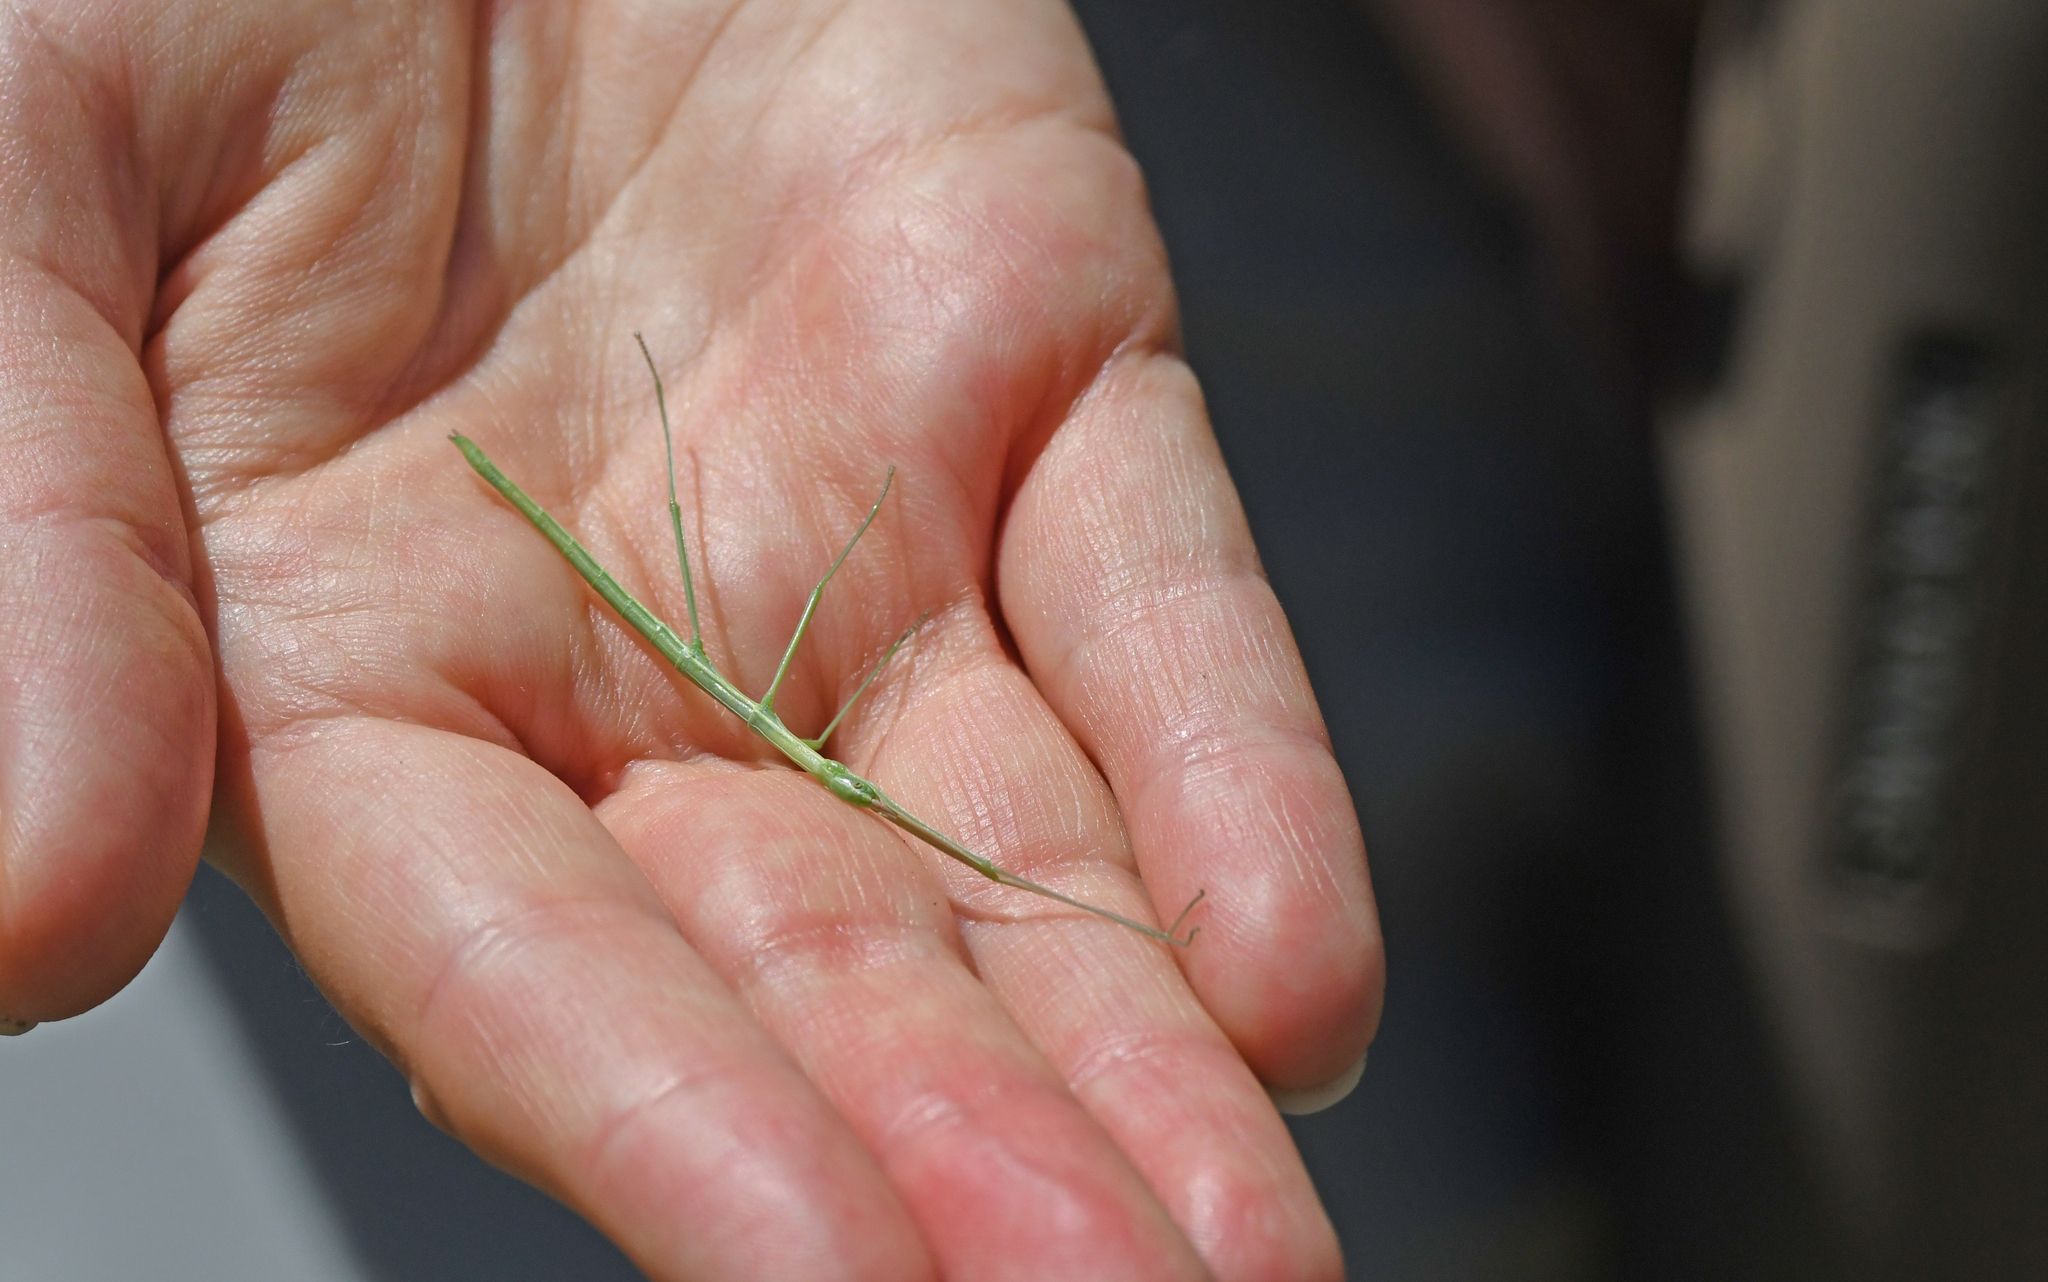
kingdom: Animalia
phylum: Arthropoda
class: Insecta
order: Phasmida
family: Bacillidae
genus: Pijnackeria
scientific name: Pijnackeria masettii
